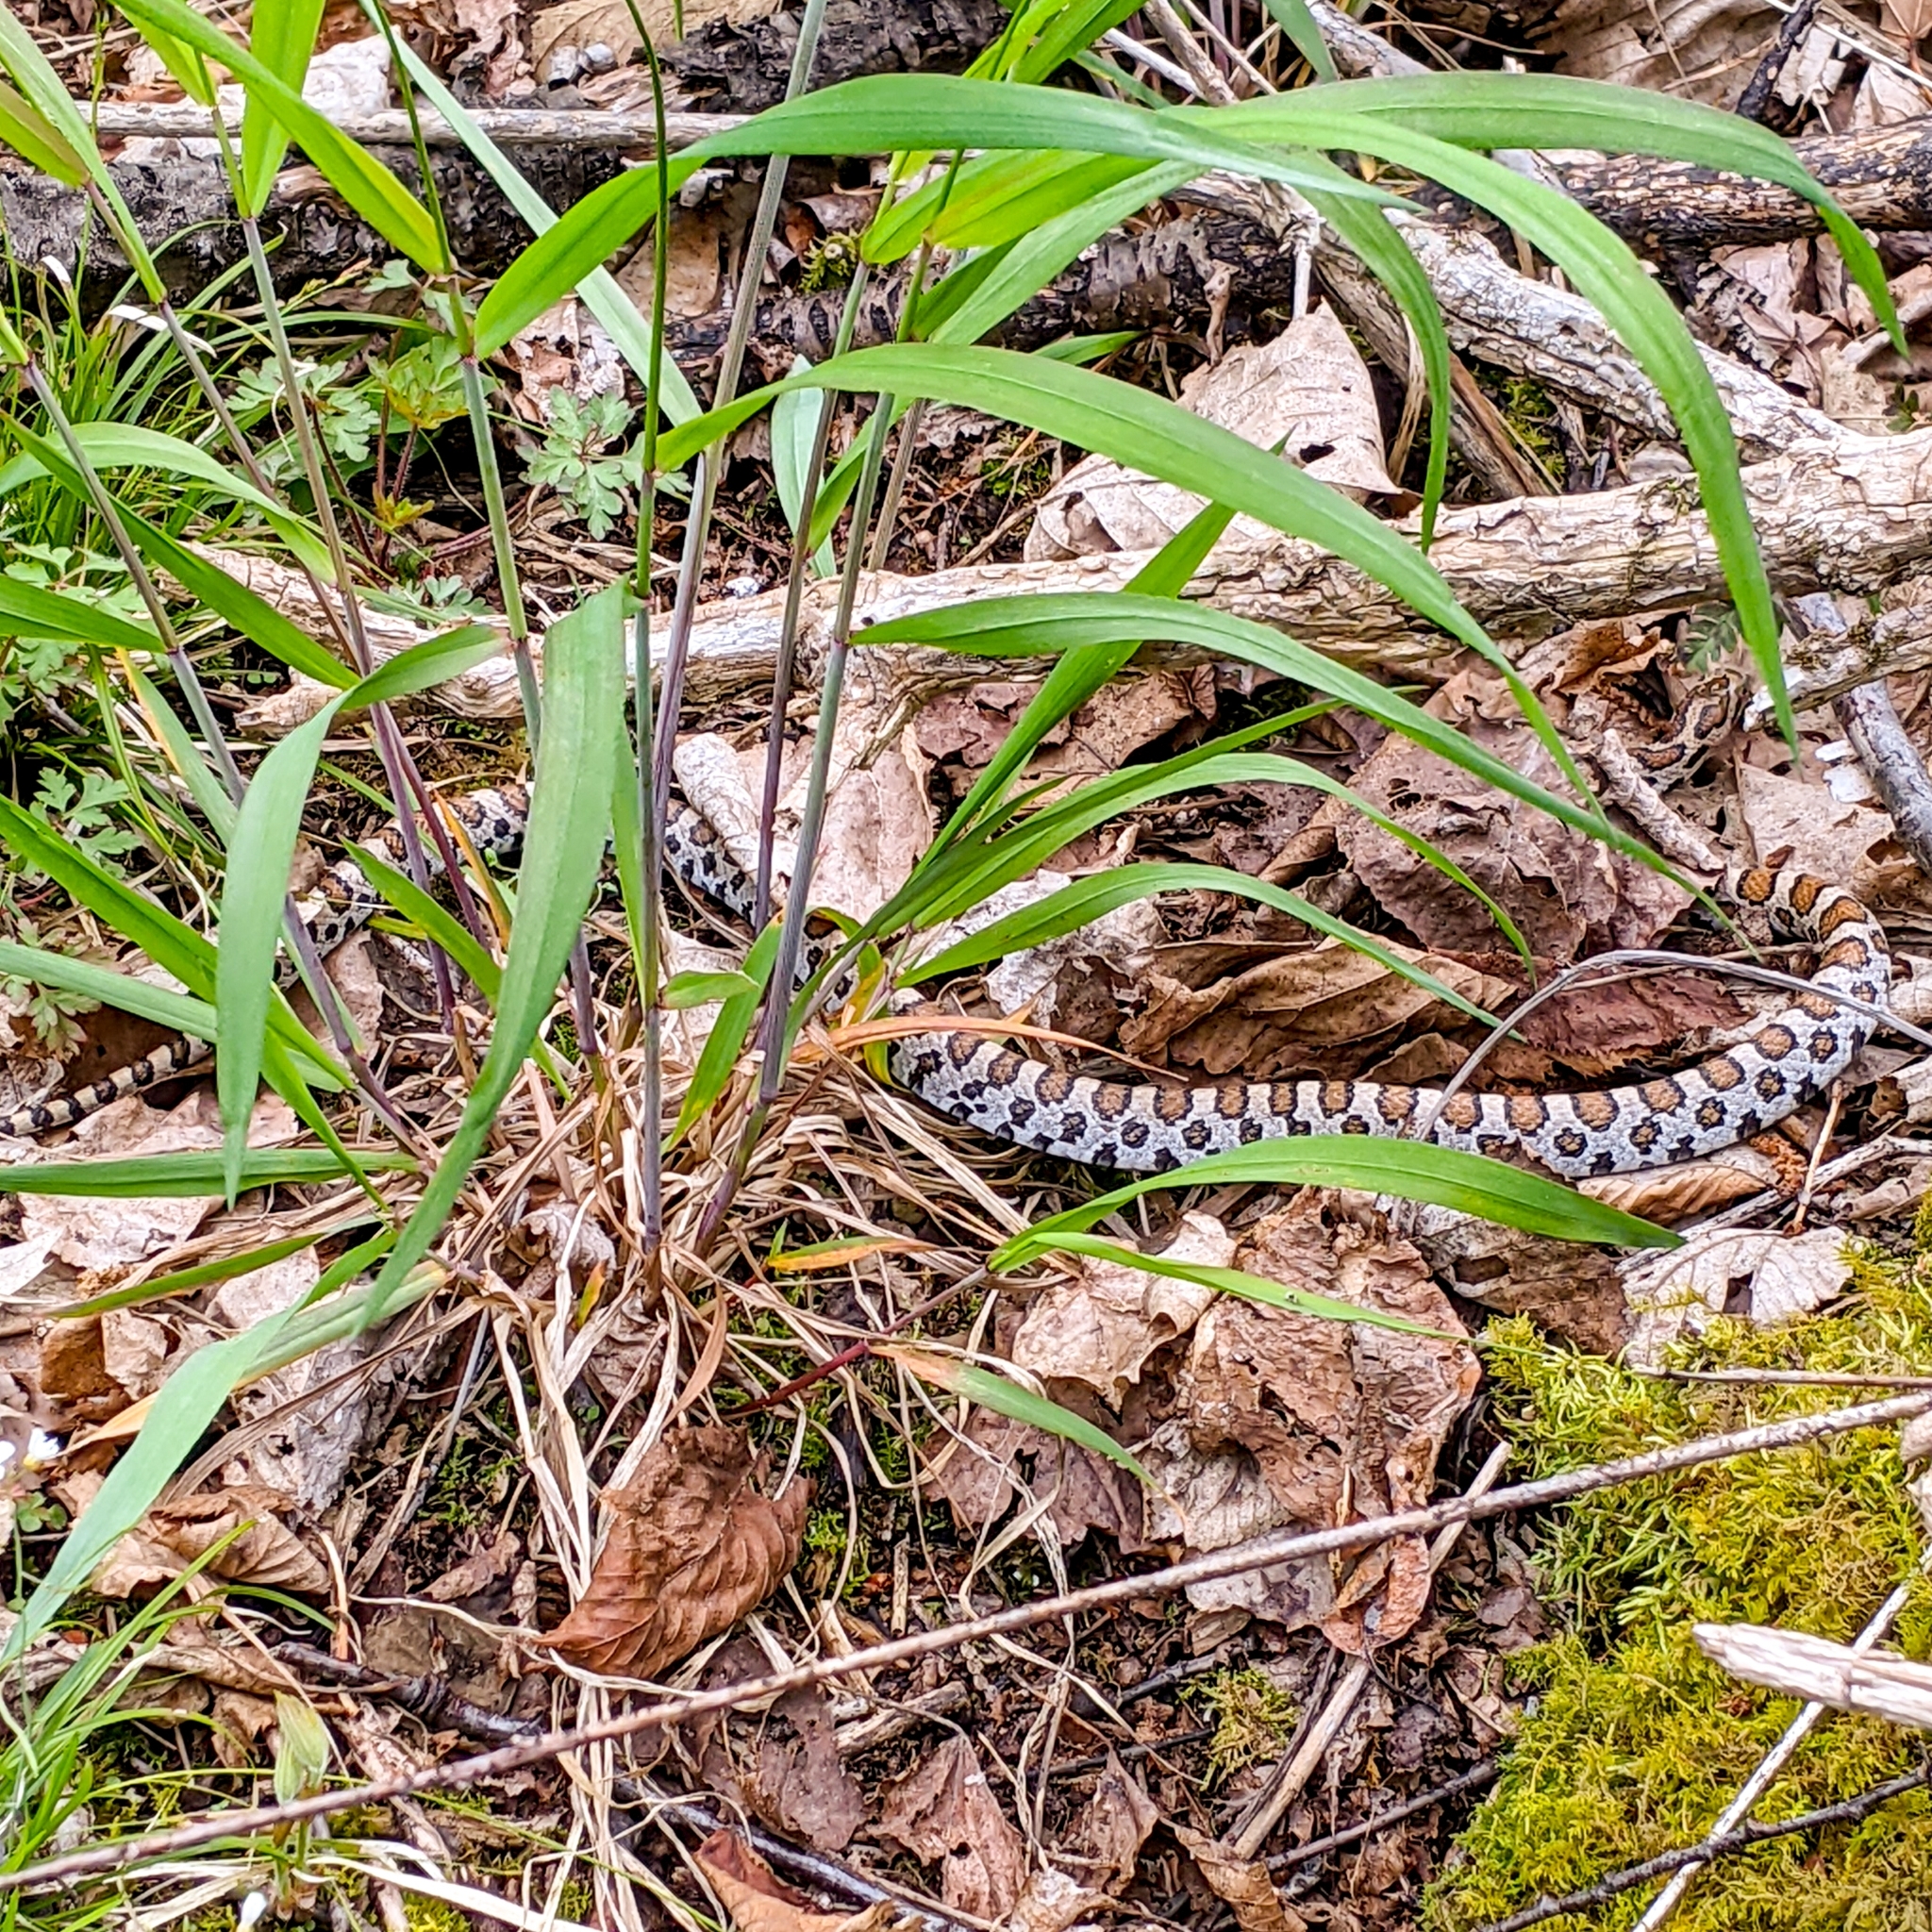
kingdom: Animalia
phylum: Chordata
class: Squamata
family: Colubridae
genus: Lampropeltis
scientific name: Lampropeltis triangulum
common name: Eastern milksnake
